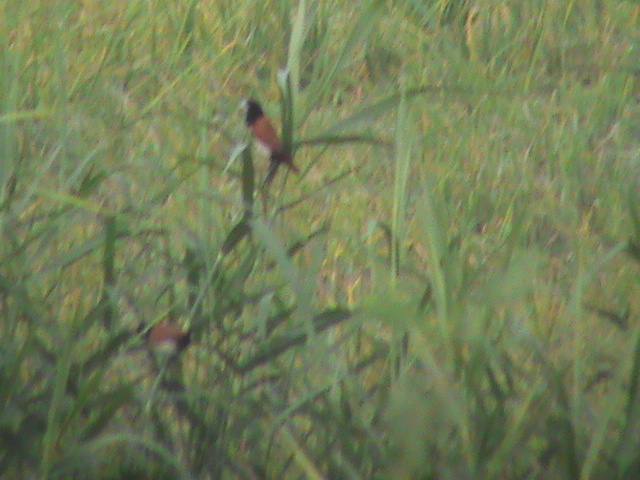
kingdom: Animalia
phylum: Chordata
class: Aves
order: Passeriformes
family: Estrildidae
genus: Lonchura
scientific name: Lonchura malacca
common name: Tricolored munia
